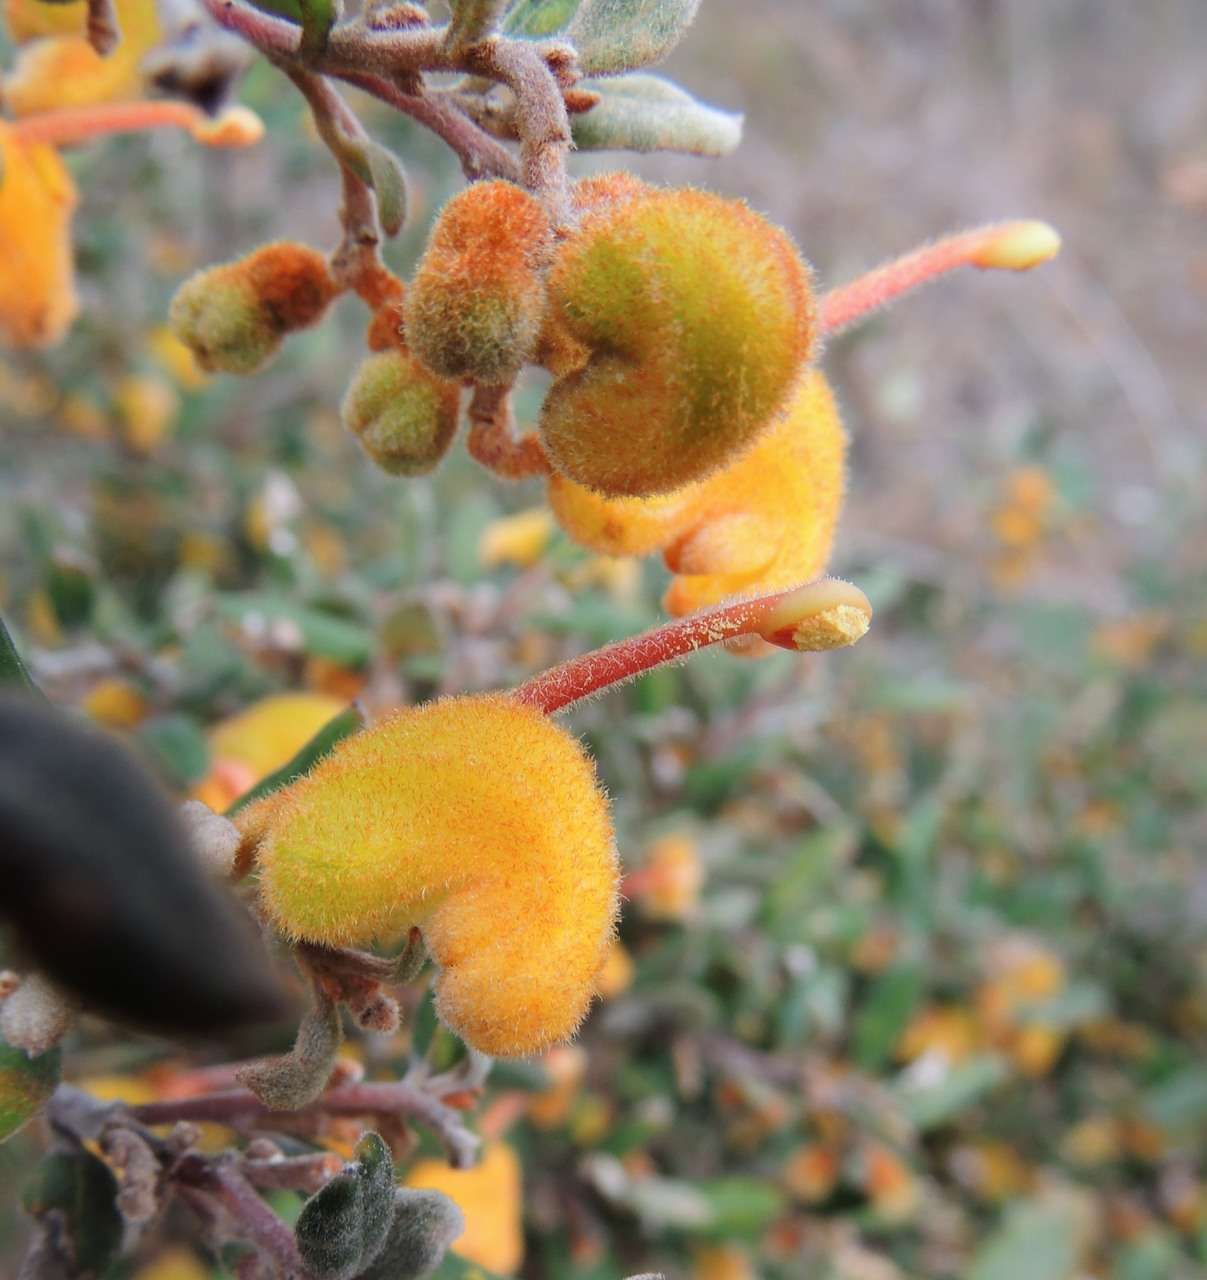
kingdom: Plantae
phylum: Tracheophyta
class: Magnoliopsida
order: Proteales
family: Proteaceae
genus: Grevillea
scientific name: Grevillea chrysophaea
